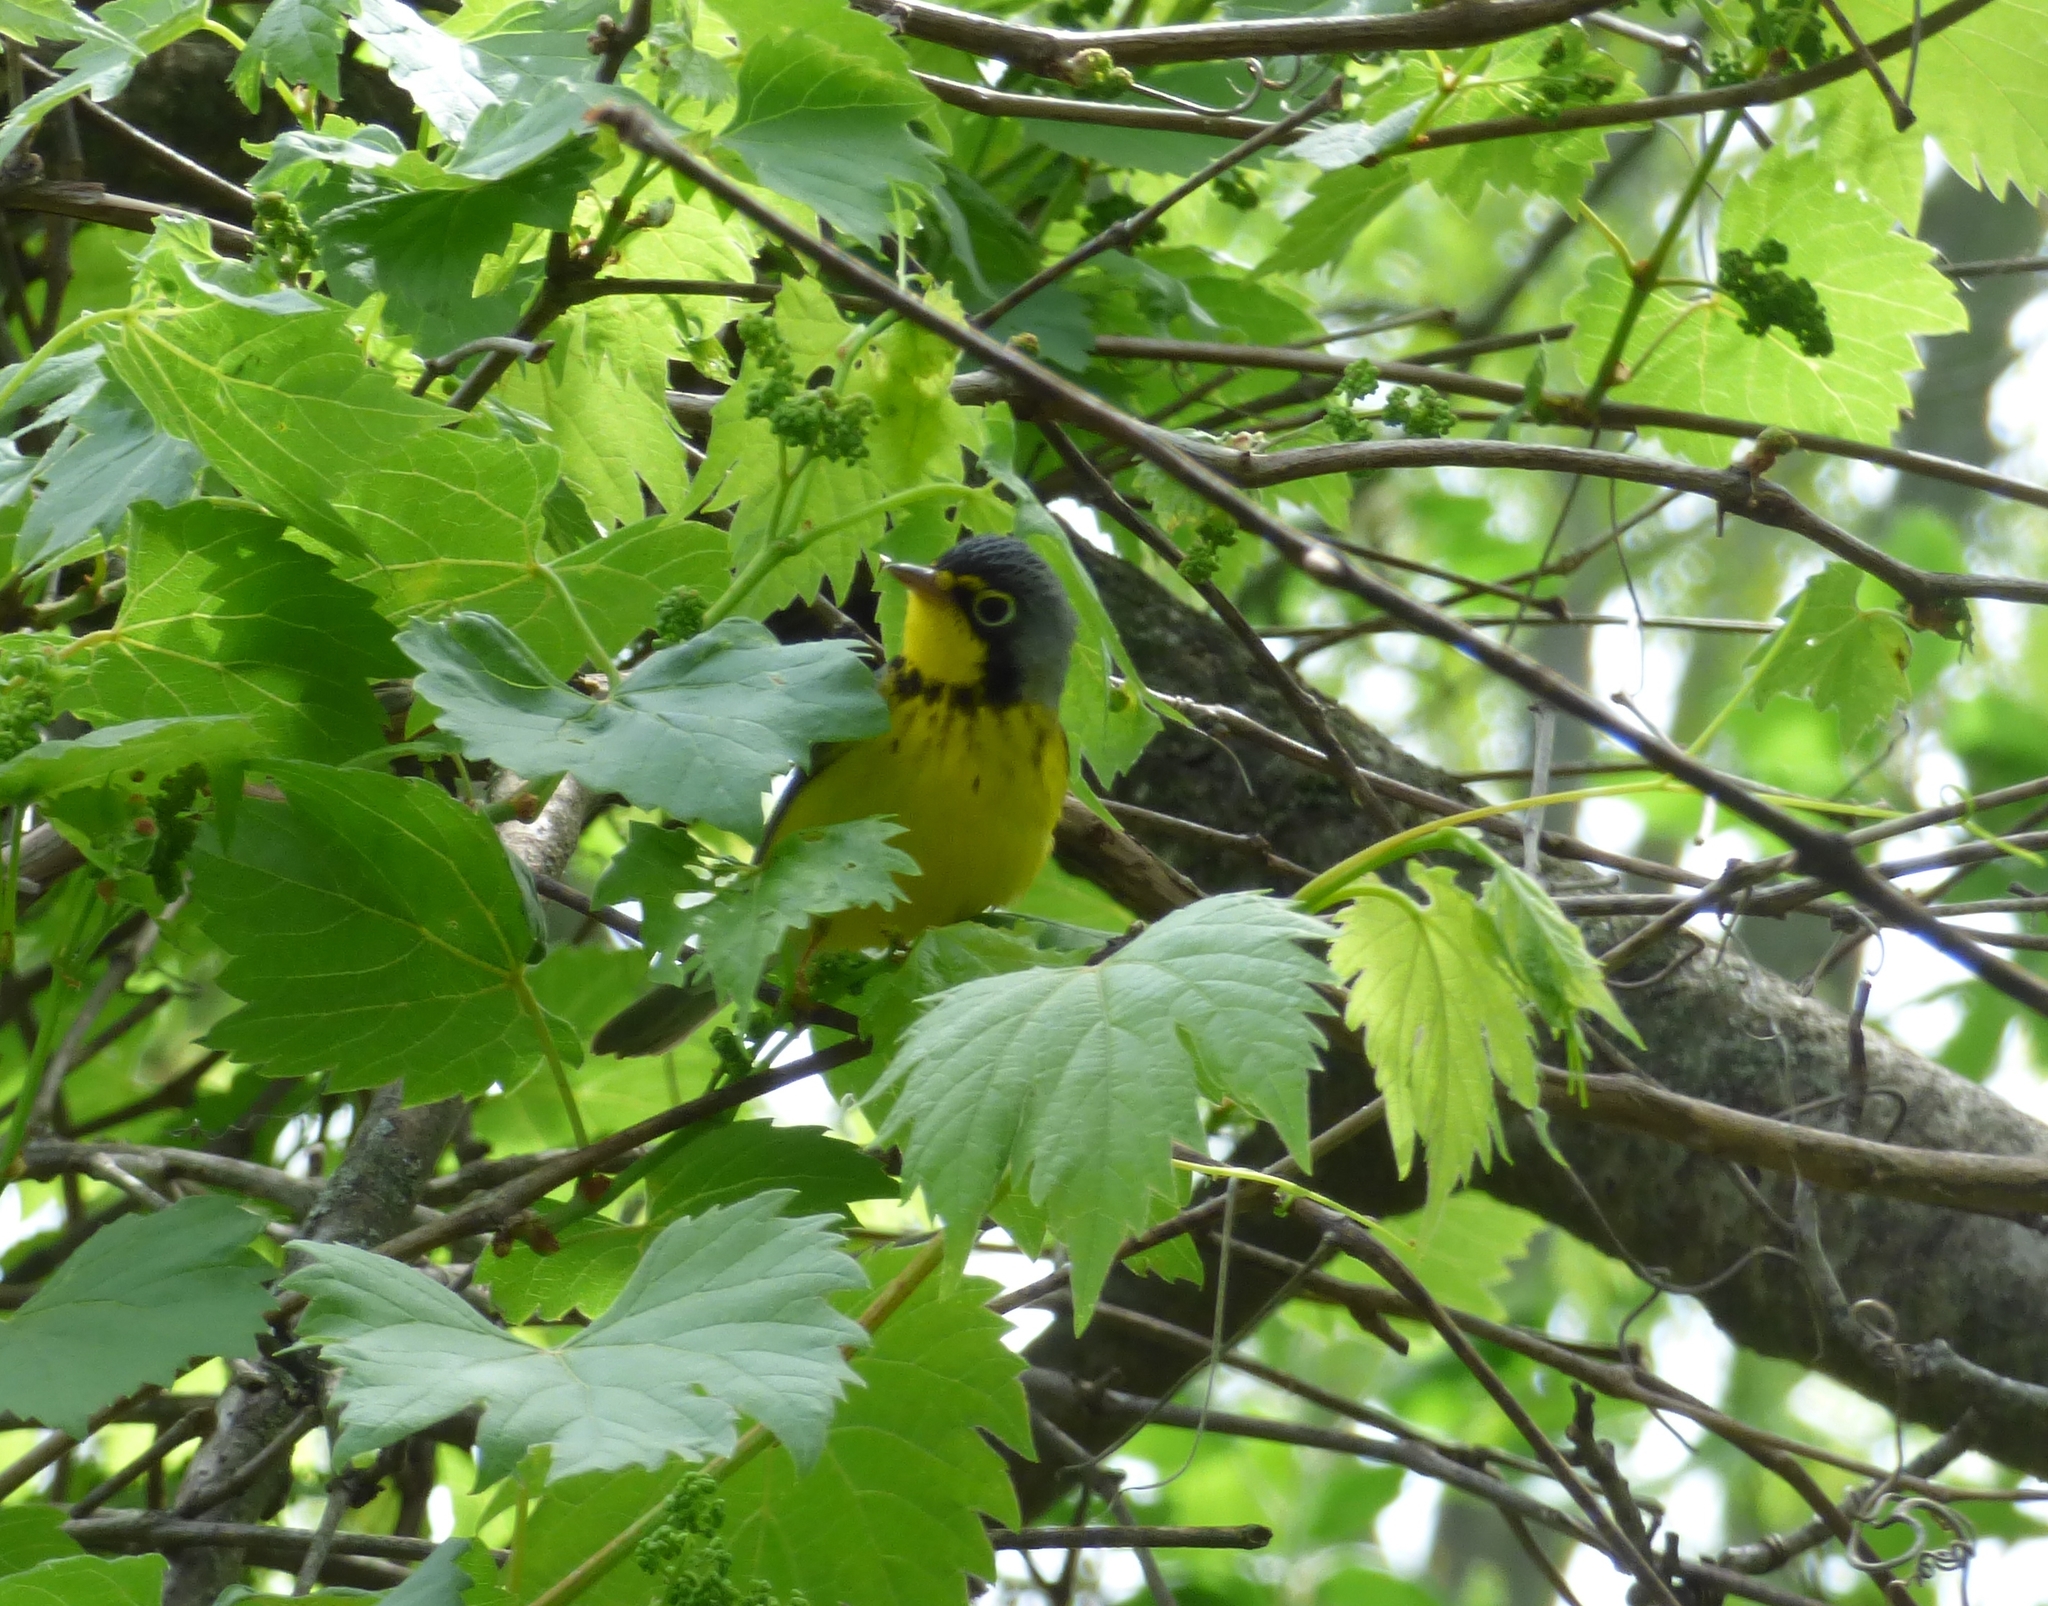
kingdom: Animalia
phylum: Chordata
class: Aves
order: Passeriformes
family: Parulidae
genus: Cardellina
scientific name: Cardellina canadensis
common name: Canada warbler
